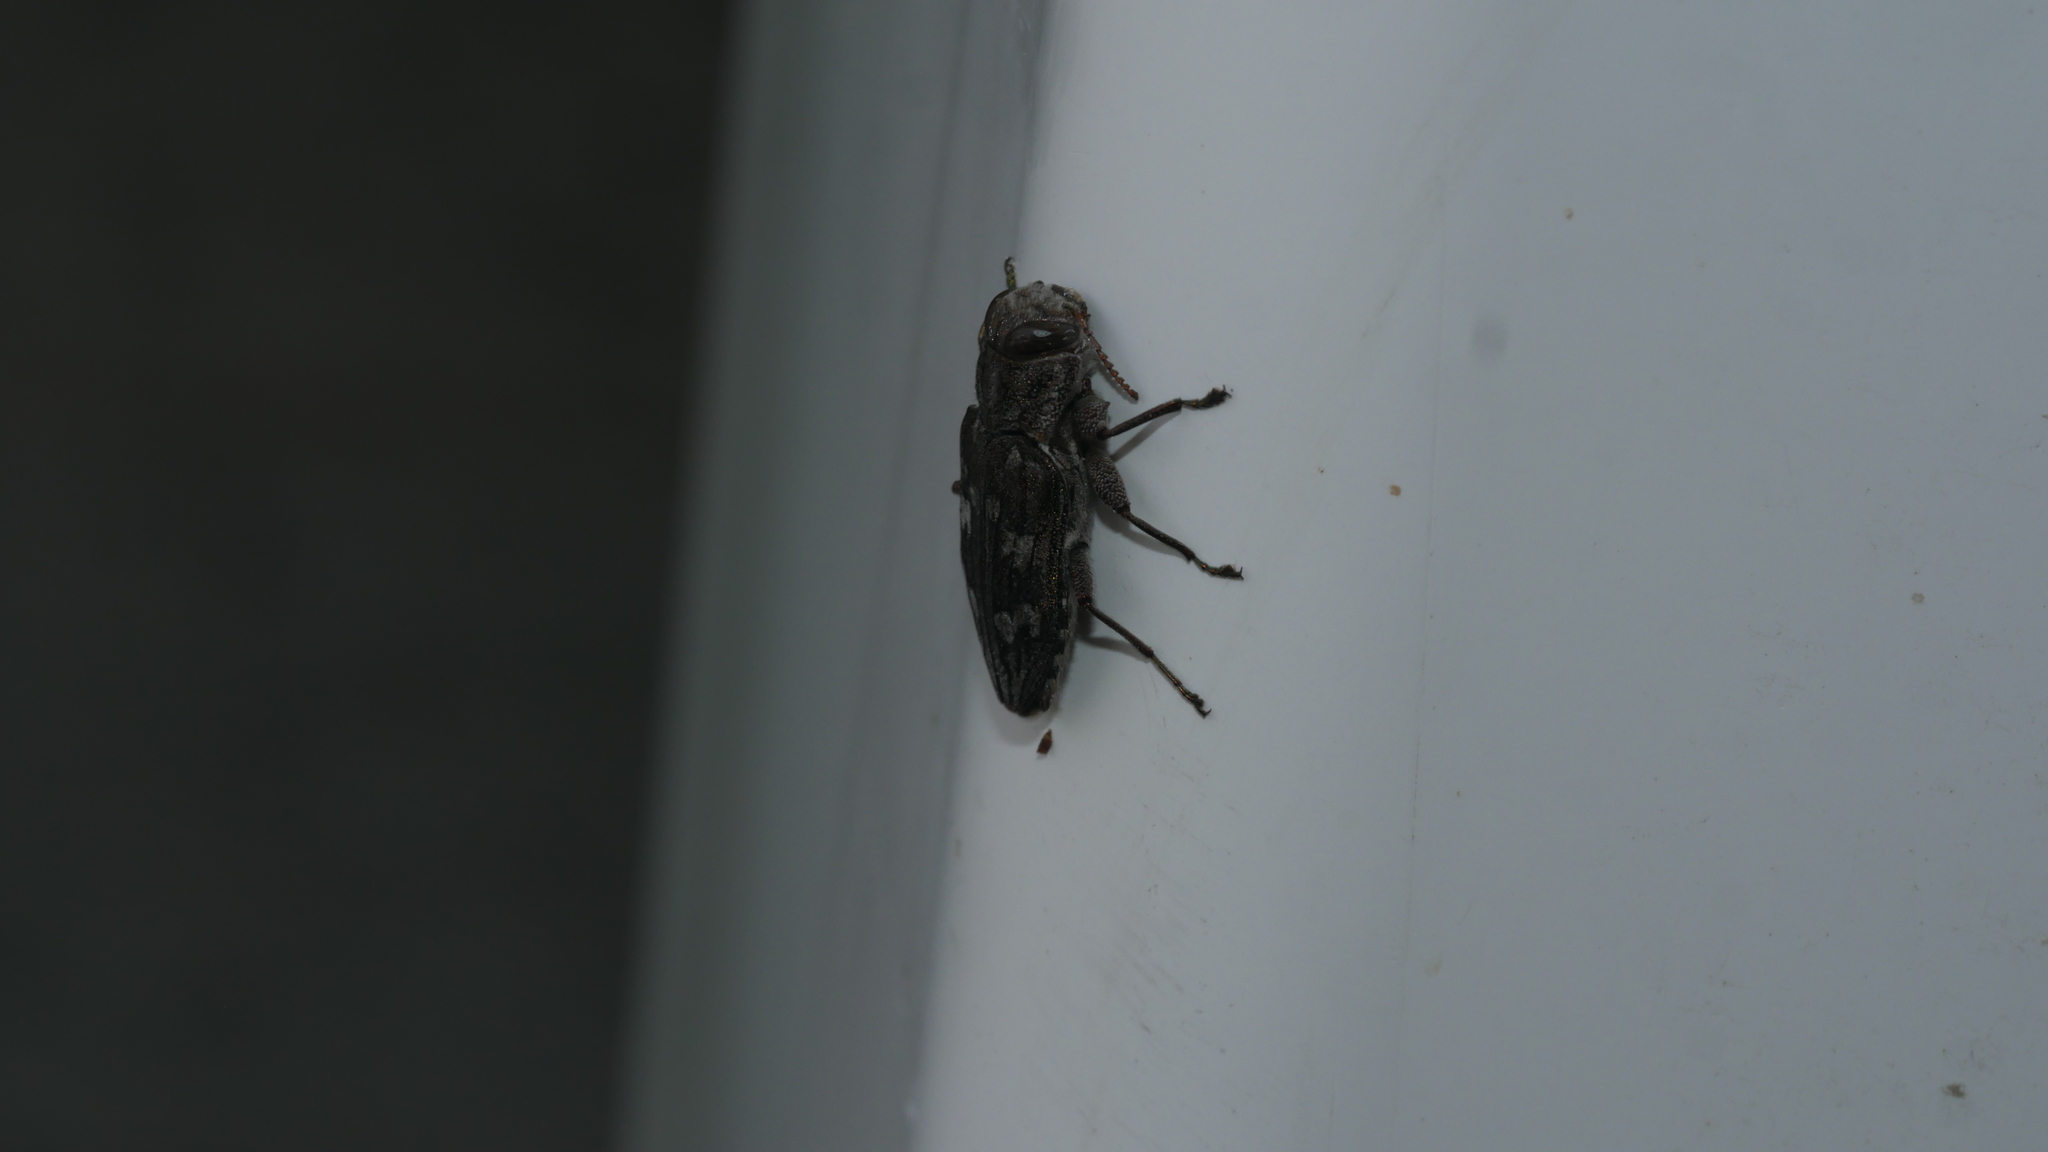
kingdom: Animalia
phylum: Arthropoda
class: Insecta
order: Coleoptera
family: Buprestidae
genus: Chrysobothris
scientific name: Chrysobothris
